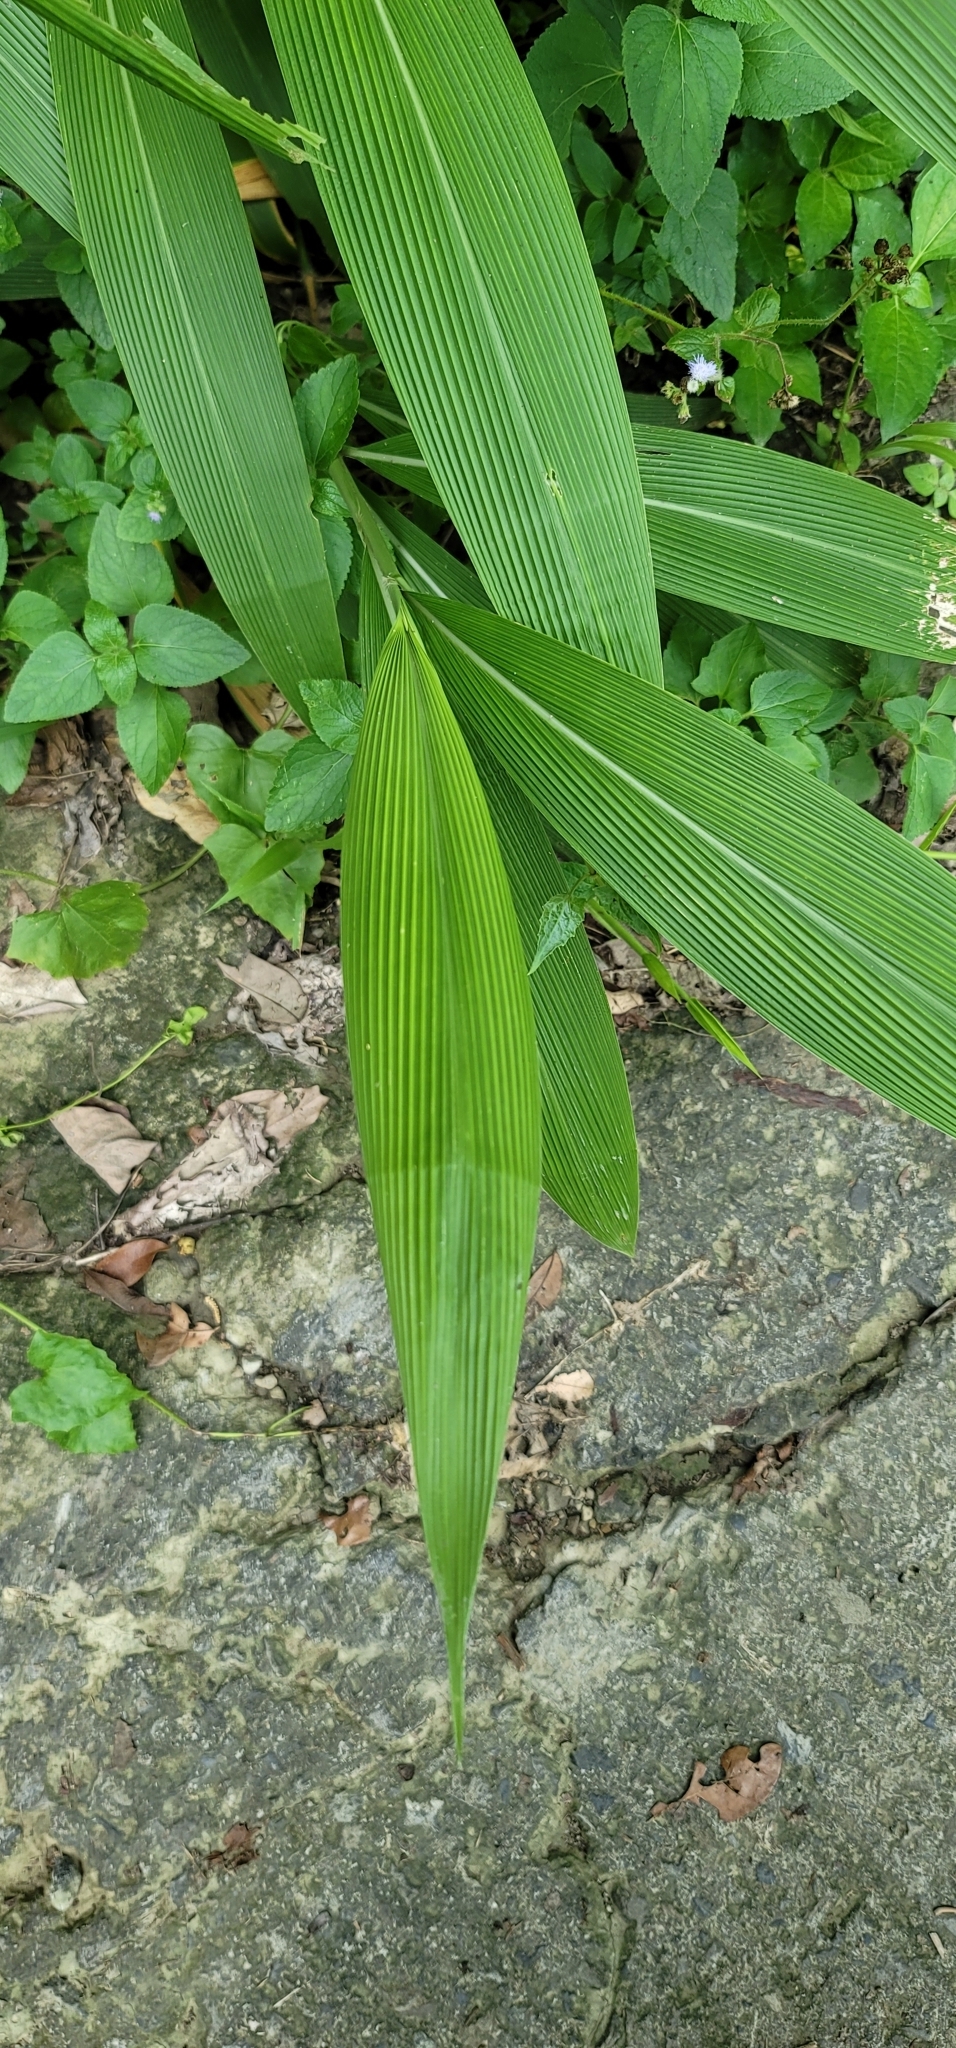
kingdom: Plantae
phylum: Tracheophyta
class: Liliopsida
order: Poales
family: Poaceae
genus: Setaria
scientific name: Setaria palmifolia
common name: Broadleaved bristlegrass
